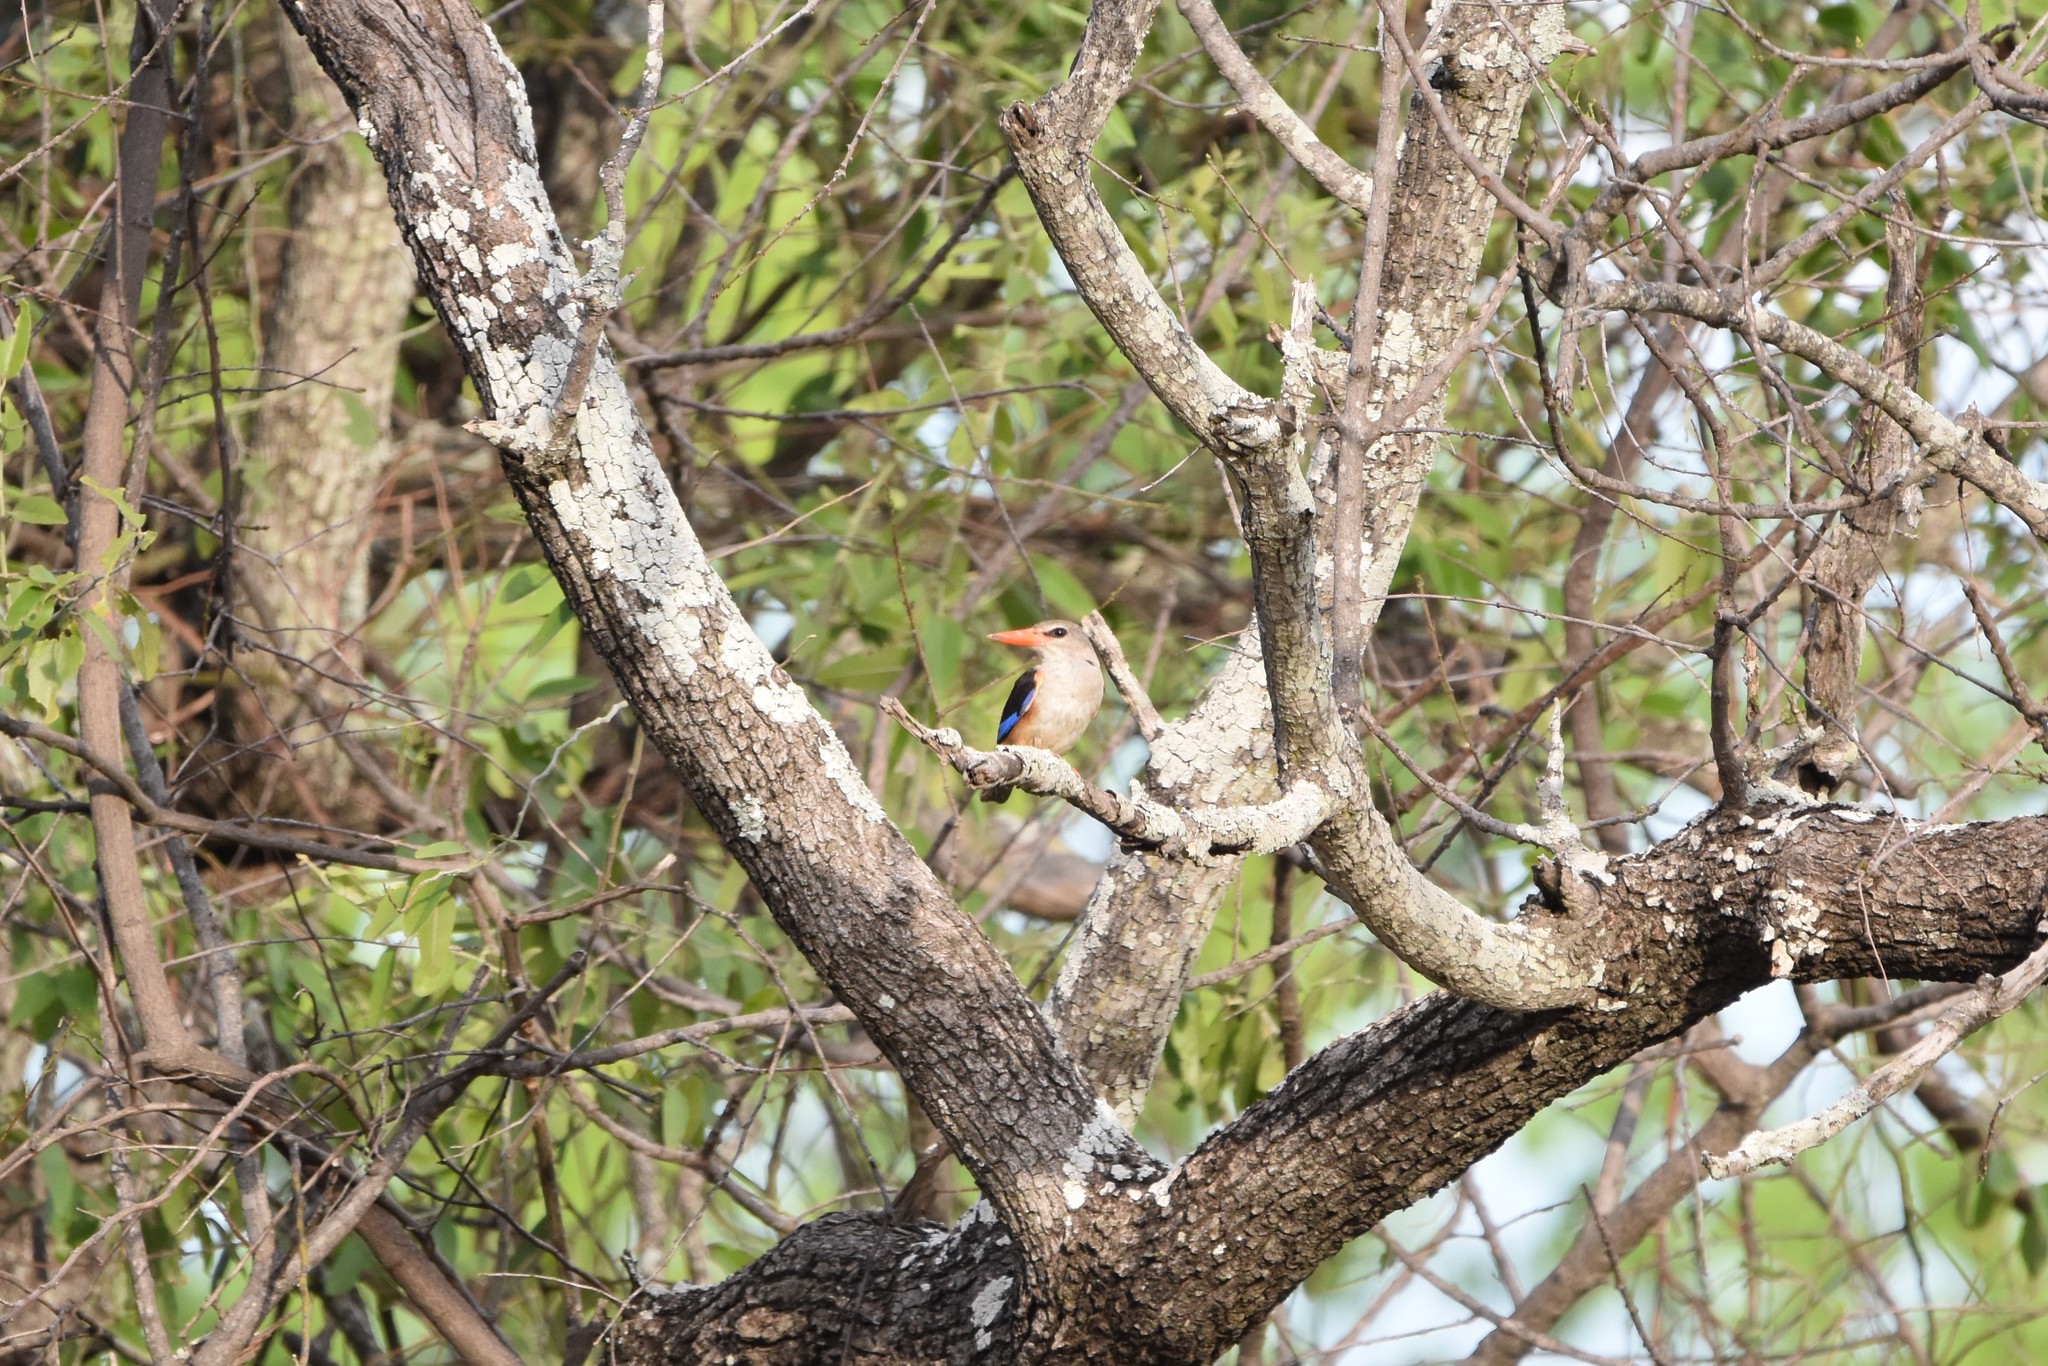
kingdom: Animalia
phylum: Chordata
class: Aves
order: Coraciiformes
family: Alcedinidae
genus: Halcyon
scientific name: Halcyon leucocephala
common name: Grey-headed kingfisher
